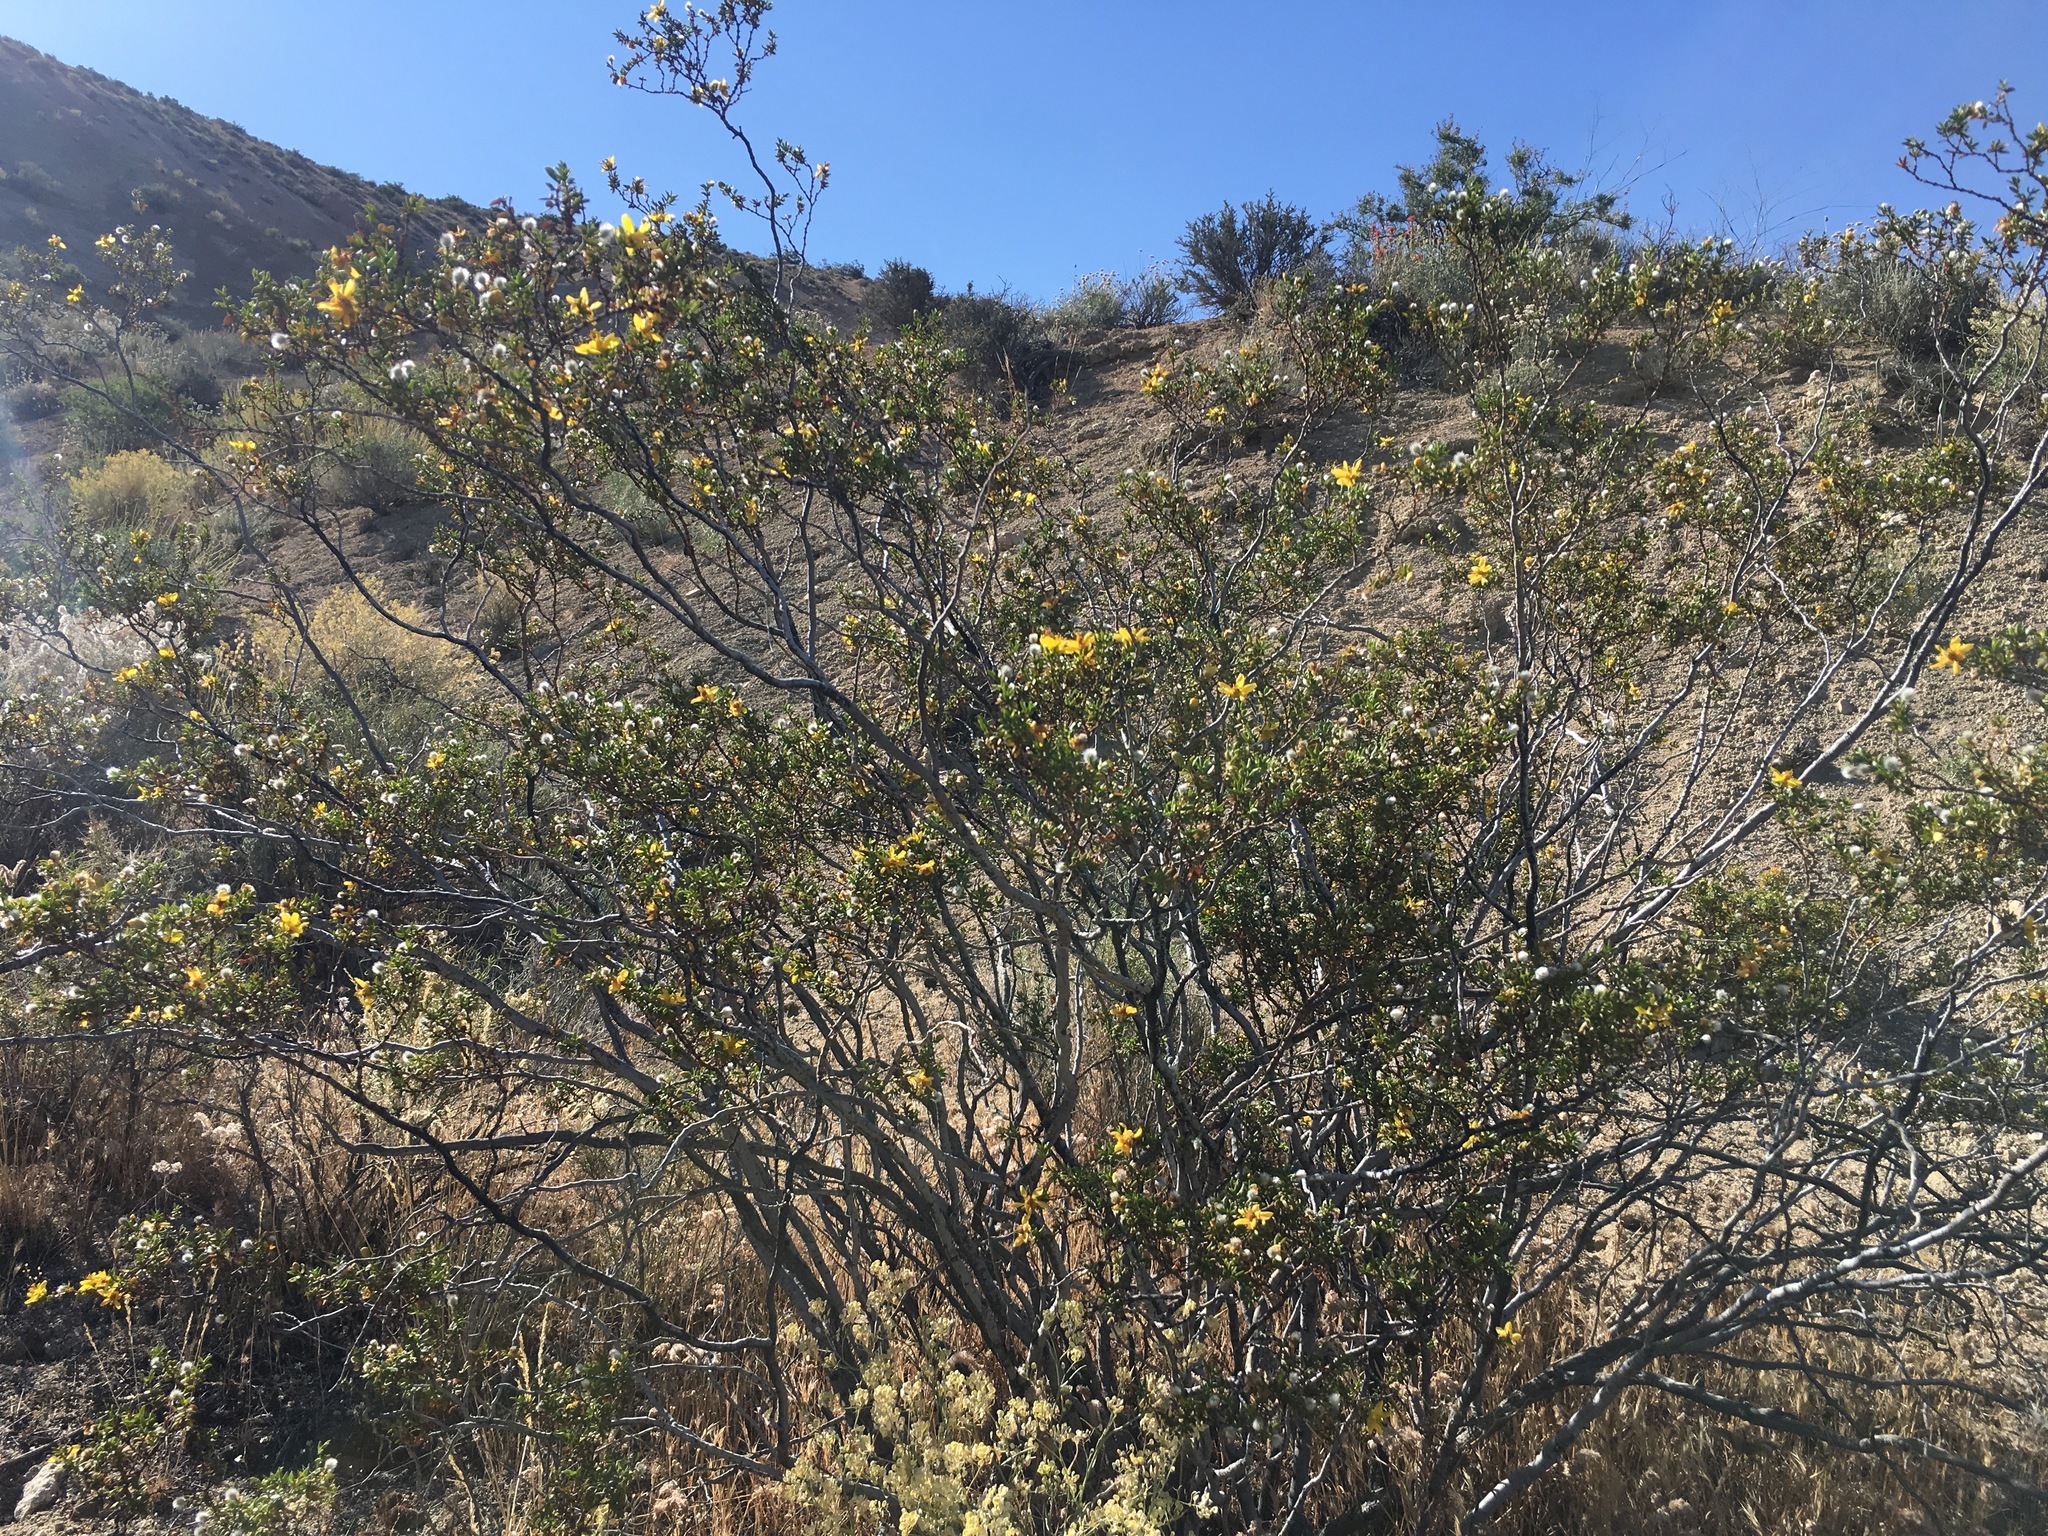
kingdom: Plantae
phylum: Tracheophyta
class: Magnoliopsida
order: Zygophyllales
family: Zygophyllaceae
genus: Larrea
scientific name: Larrea tridentata
